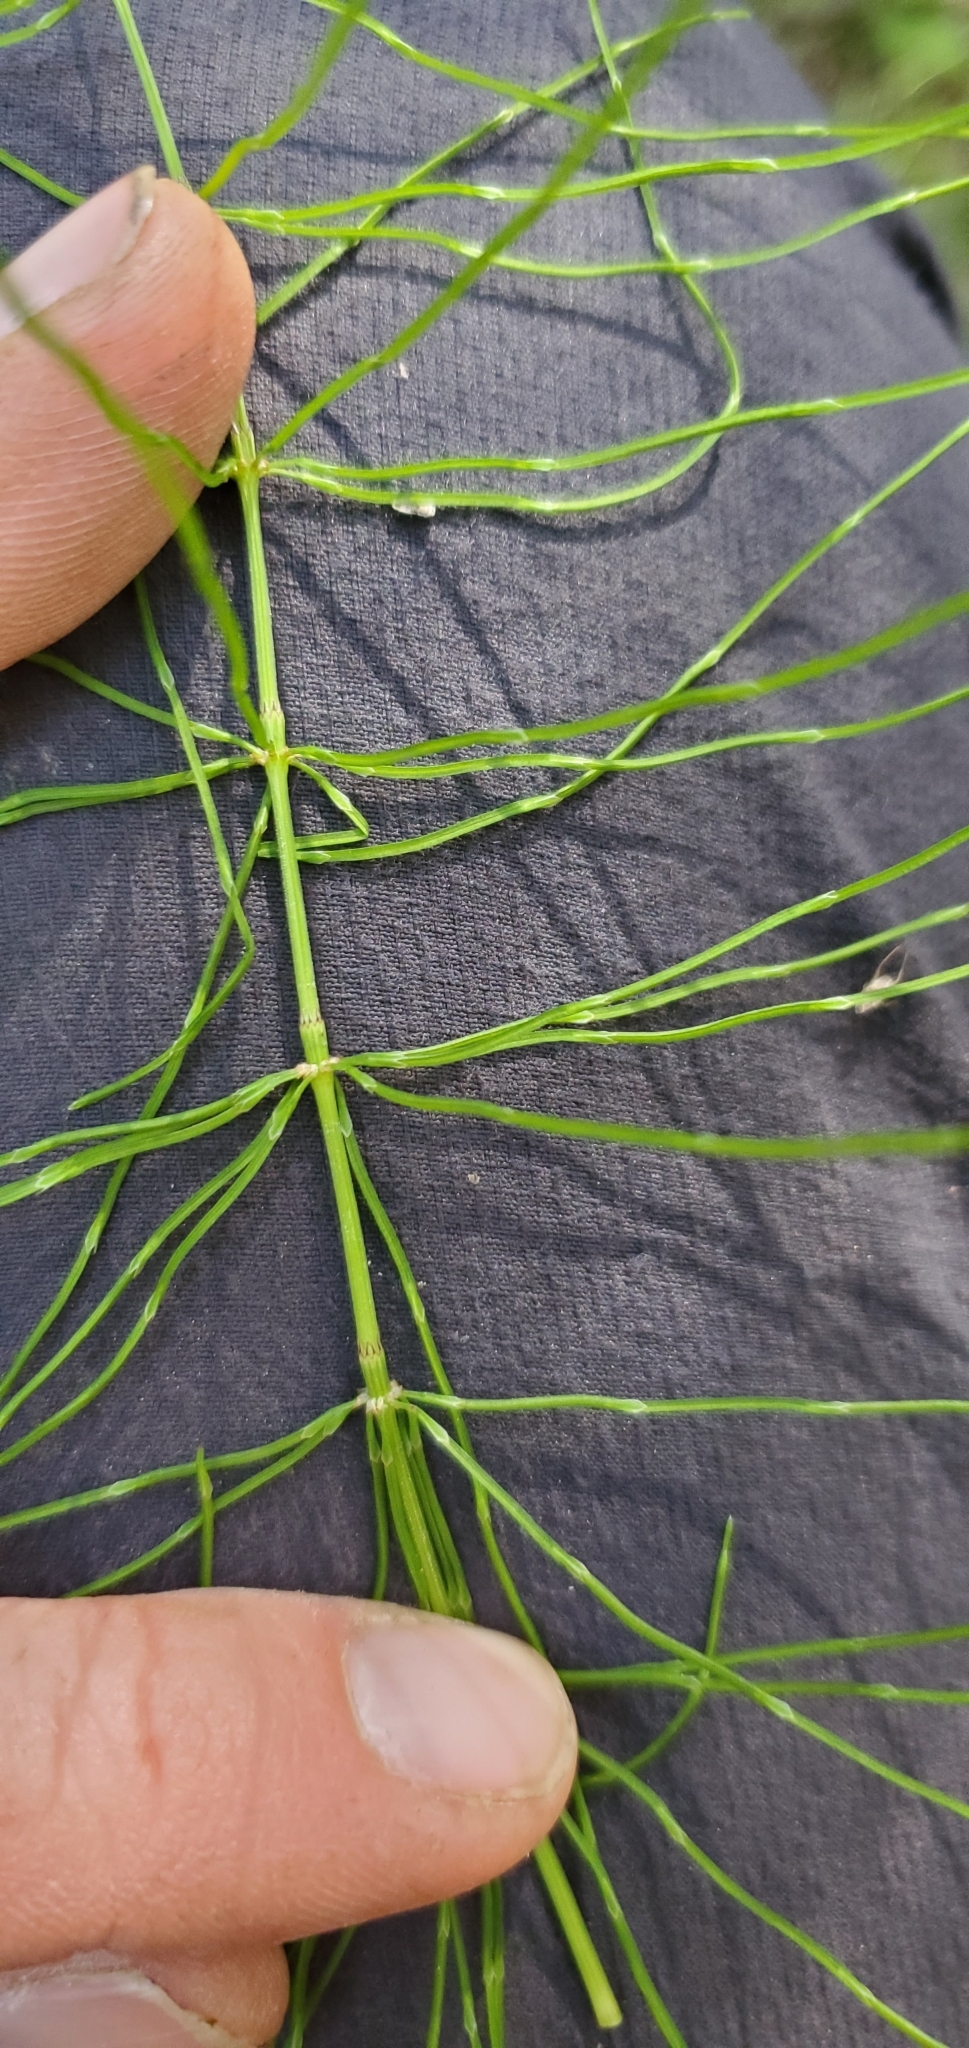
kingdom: Plantae
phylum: Tracheophyta
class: Polypodiopsida
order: Equisetales
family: Equisetaceae
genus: Equisetum
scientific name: Equisetum pratense
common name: Meadow horsetail
